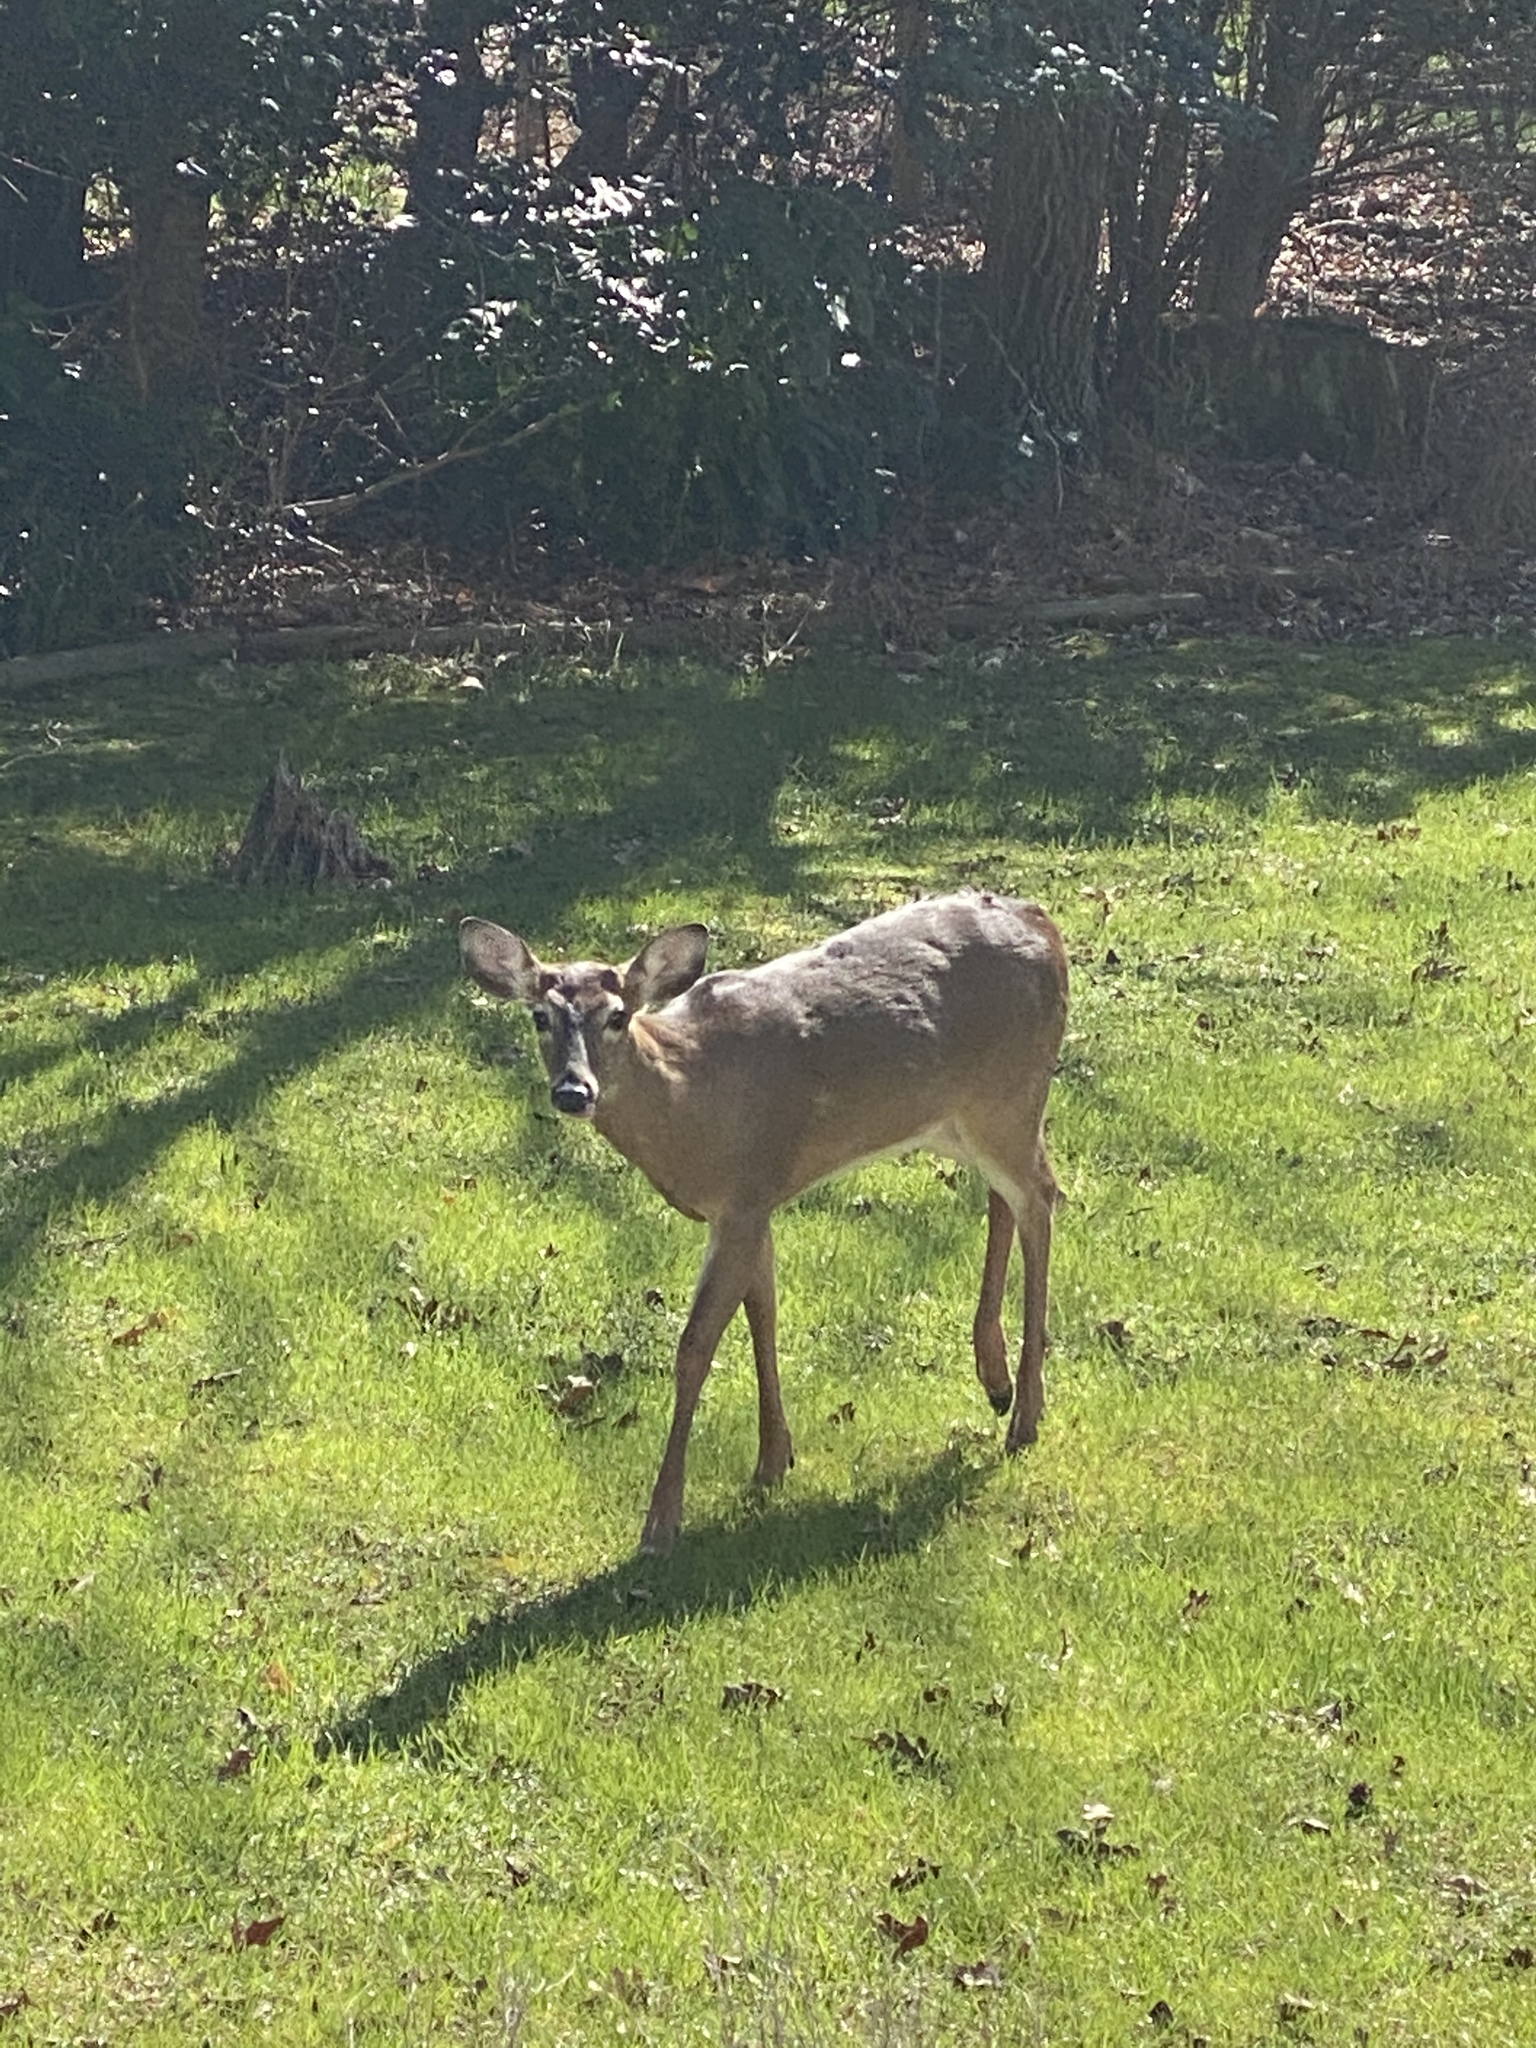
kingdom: Animalia
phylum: Chordata
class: Mammalia
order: Artiodactyla
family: Cervidae
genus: Odocoileus
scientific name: Odocoileus virginianus
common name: White-tailed deer
